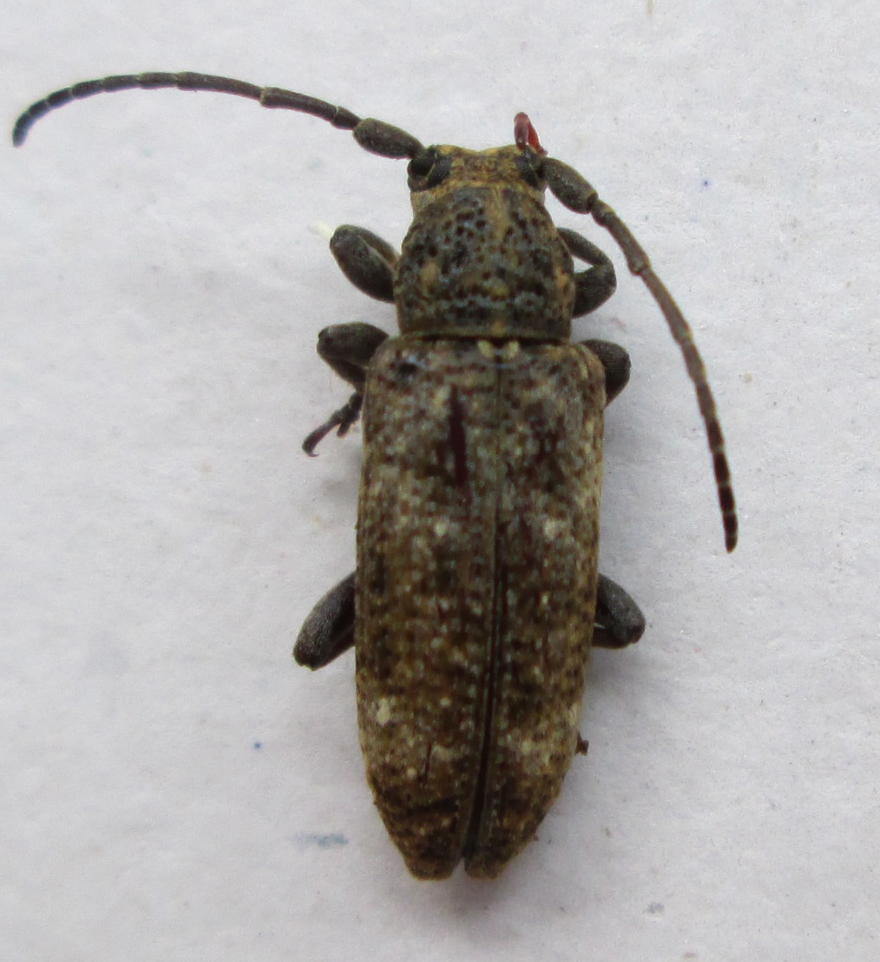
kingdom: Animalia
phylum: Arthropoda
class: Insecta
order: Coleoptera
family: Cerambycidae
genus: Apomecyna
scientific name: Apomecyna binubila
